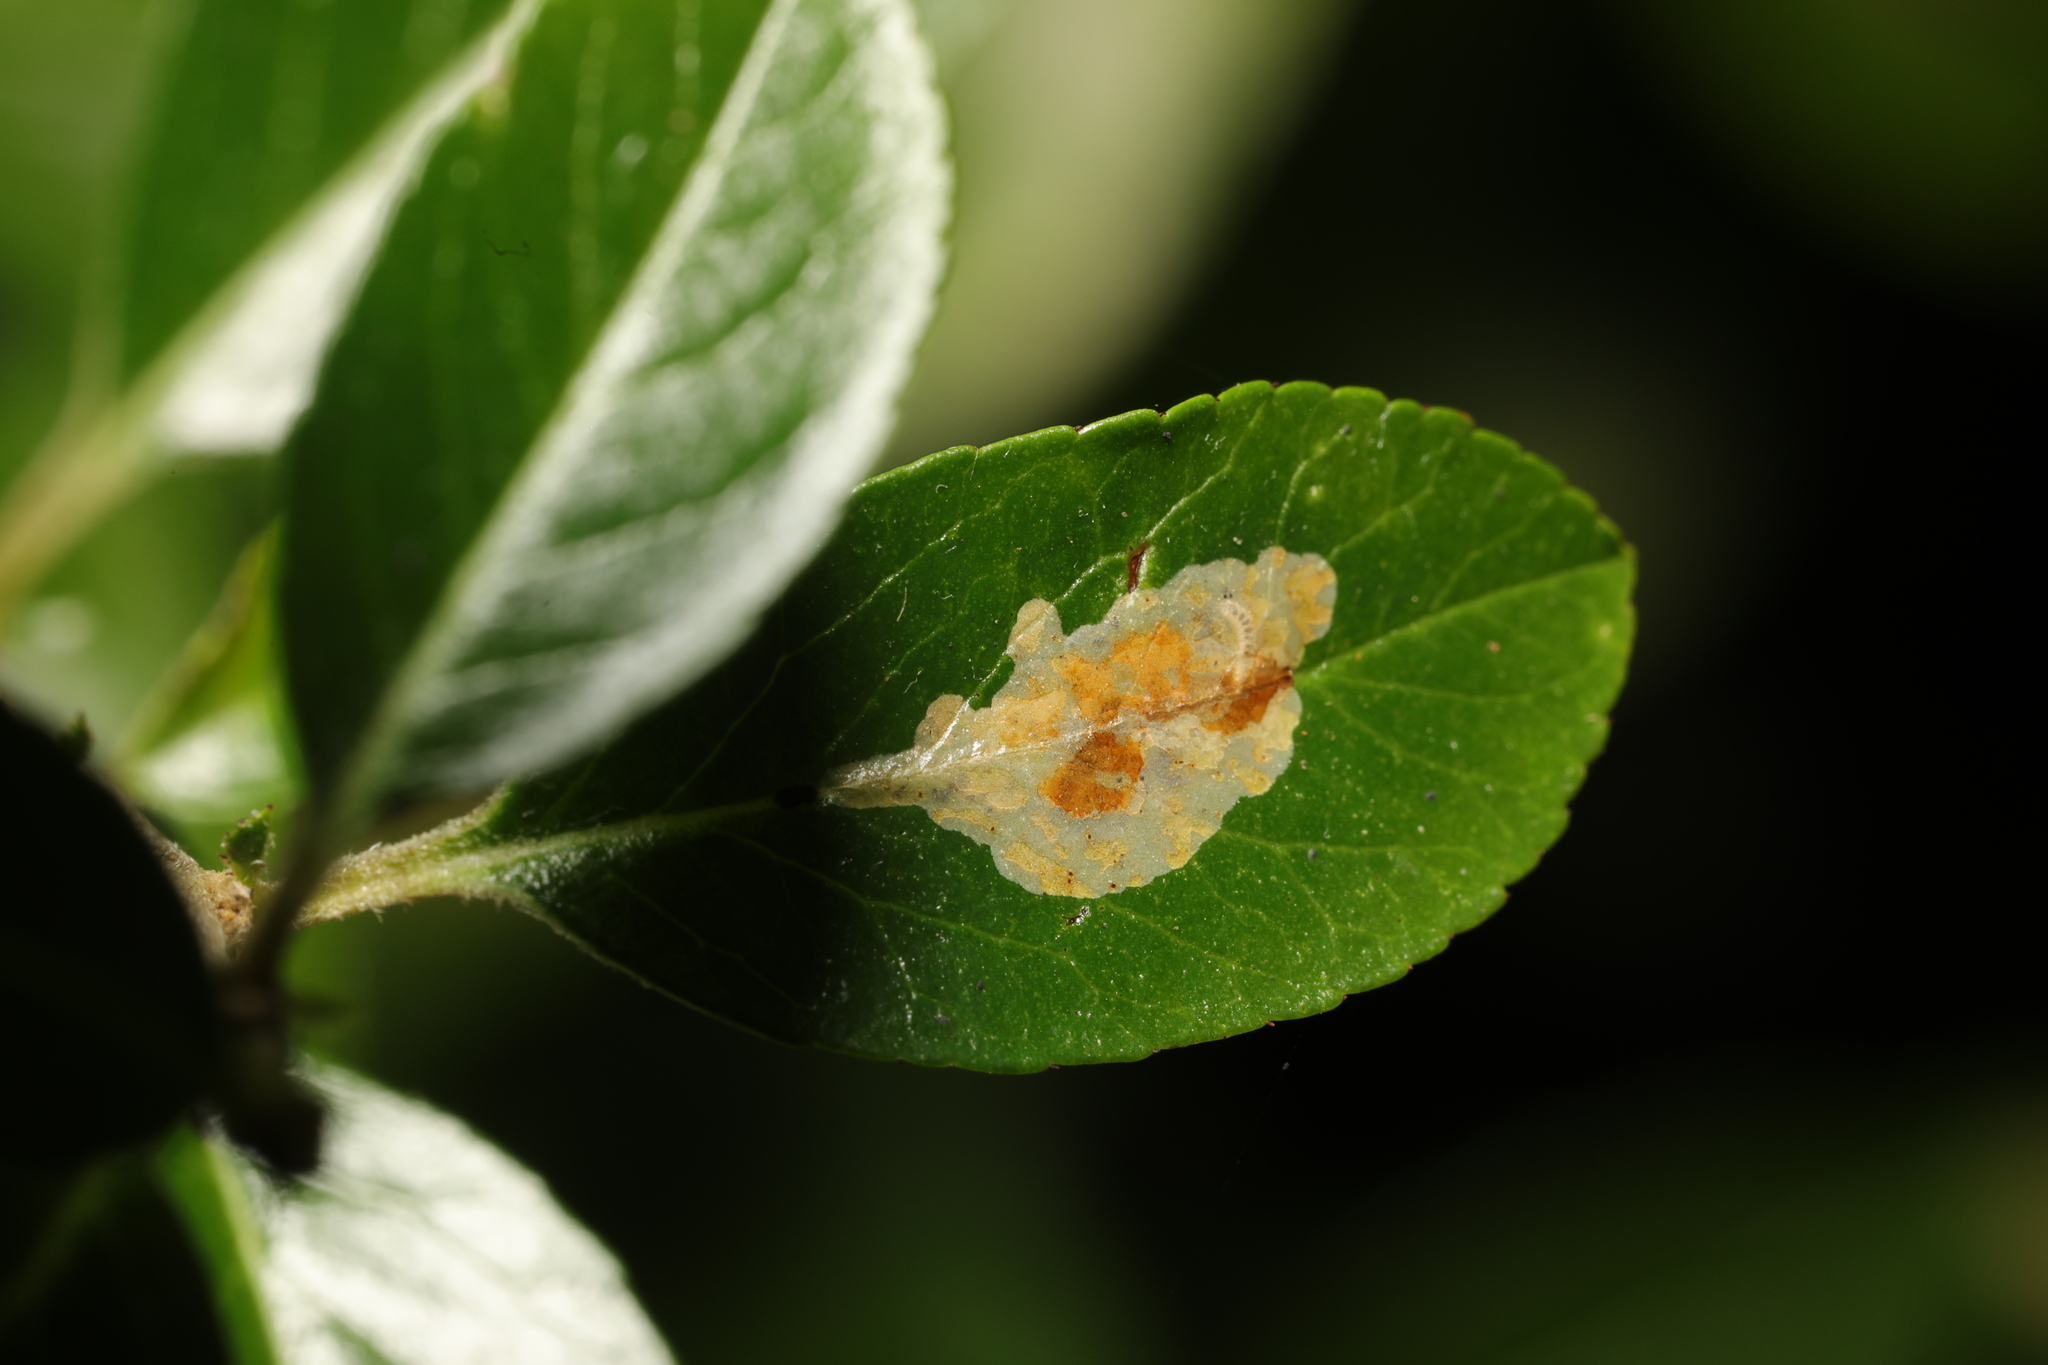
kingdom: Animalia
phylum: Arthropoda
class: Insecta
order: Lepidoptera
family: Gracillariidae
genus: Phyllonorycter
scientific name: Phyllonorycter leucographella
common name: Firethorn leaf-miner
